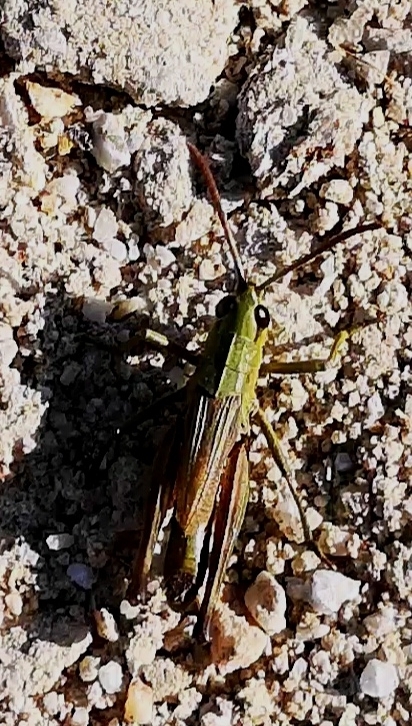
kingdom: Animalia
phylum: Arthropoda
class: Insecta
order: Orthoptera
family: Acrididae
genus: Pseudochorthippus
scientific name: Pseudochorthippus parallelus
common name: Meadow grasshopper
